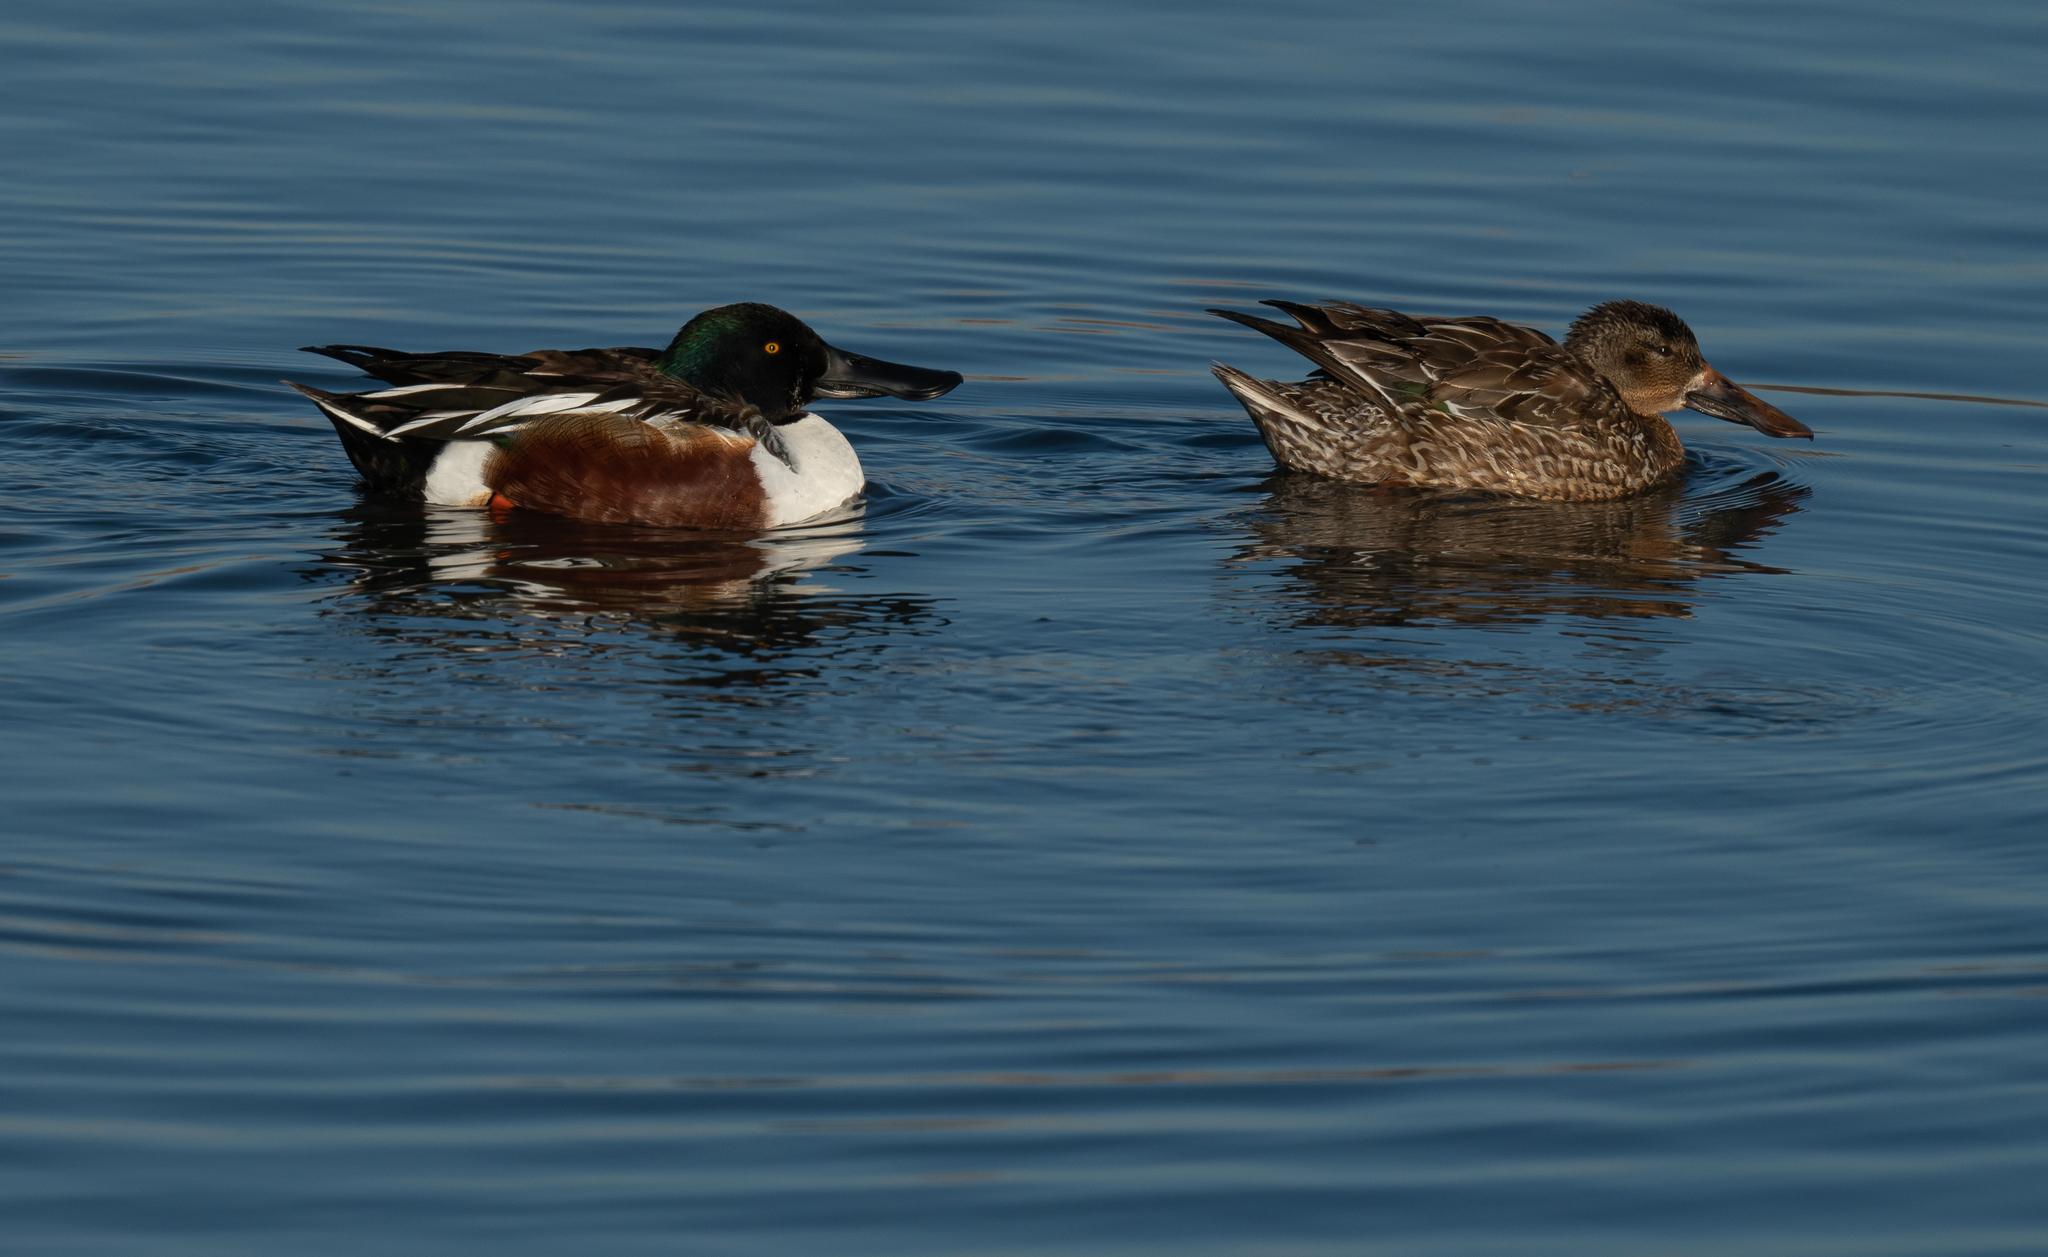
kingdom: Animalia
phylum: Chordata
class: Aves
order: Anseriformes
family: Anatidae
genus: Spatula
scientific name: Spatula clypeata
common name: Northern shoveler
